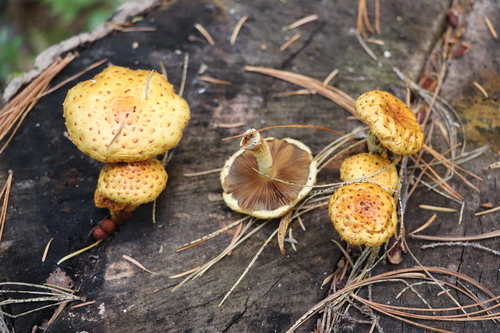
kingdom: Fungi
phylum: Basidiomycota
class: Agaricomycetes
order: Agaricales
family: Strophariaceae
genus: Pholiota
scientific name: Pholiota
